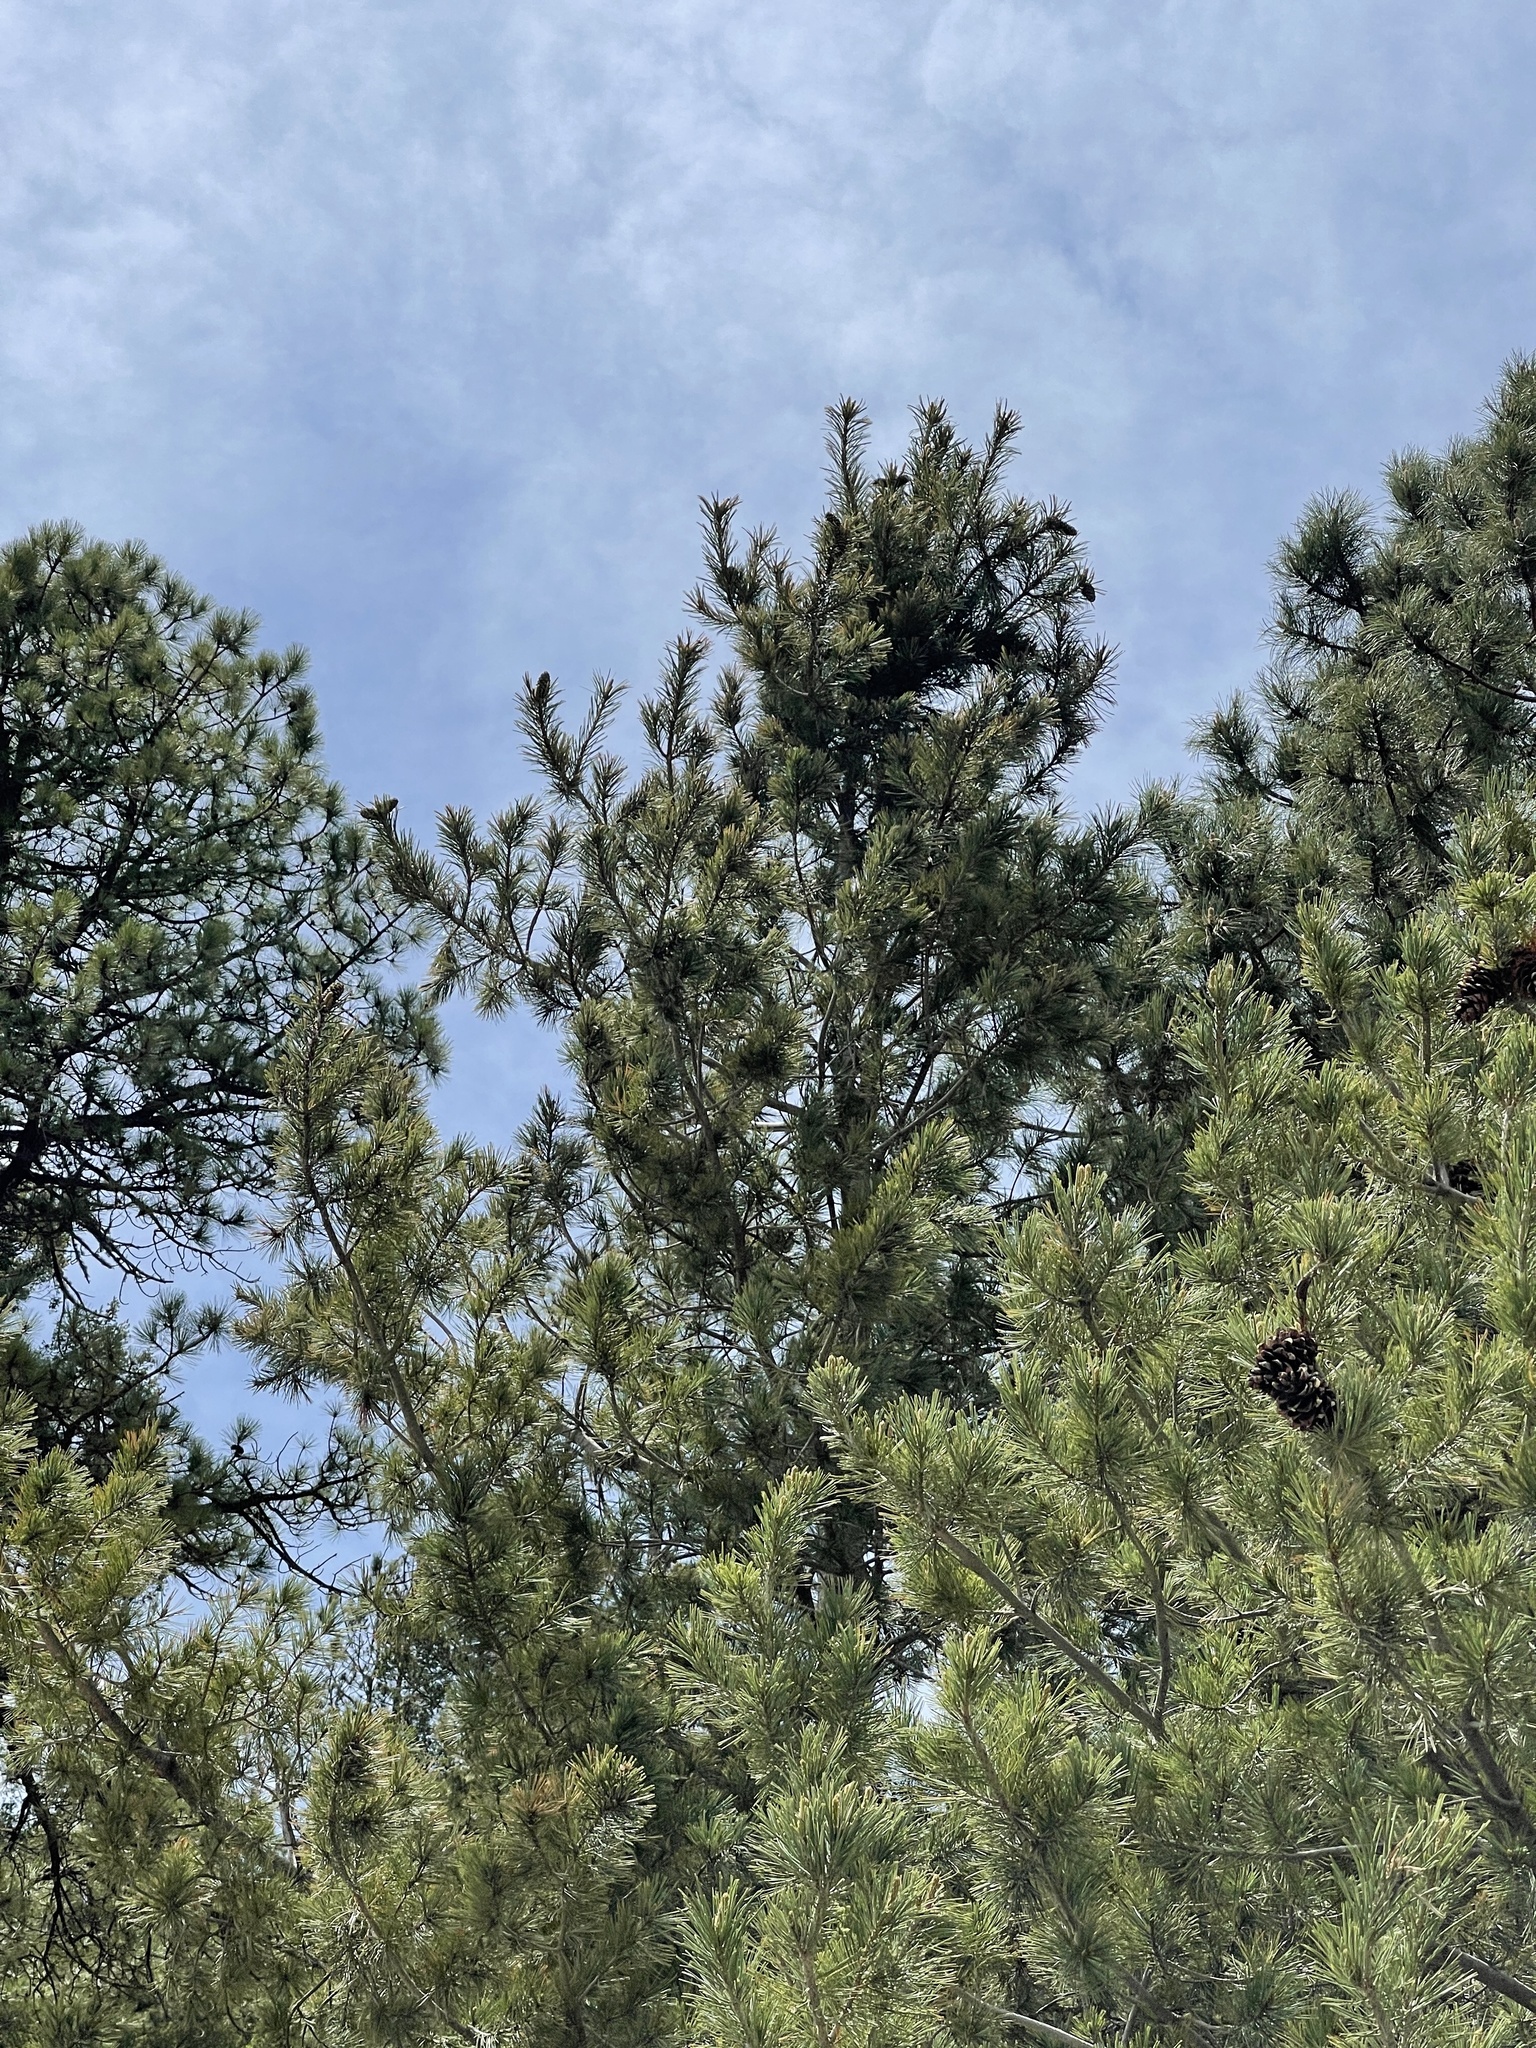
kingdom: Plantae
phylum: Tracheophyta
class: Pinopsida
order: Pinales
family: Pinaceae
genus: Pinus
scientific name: Pinus strobiformis
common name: Southwestern white pine
